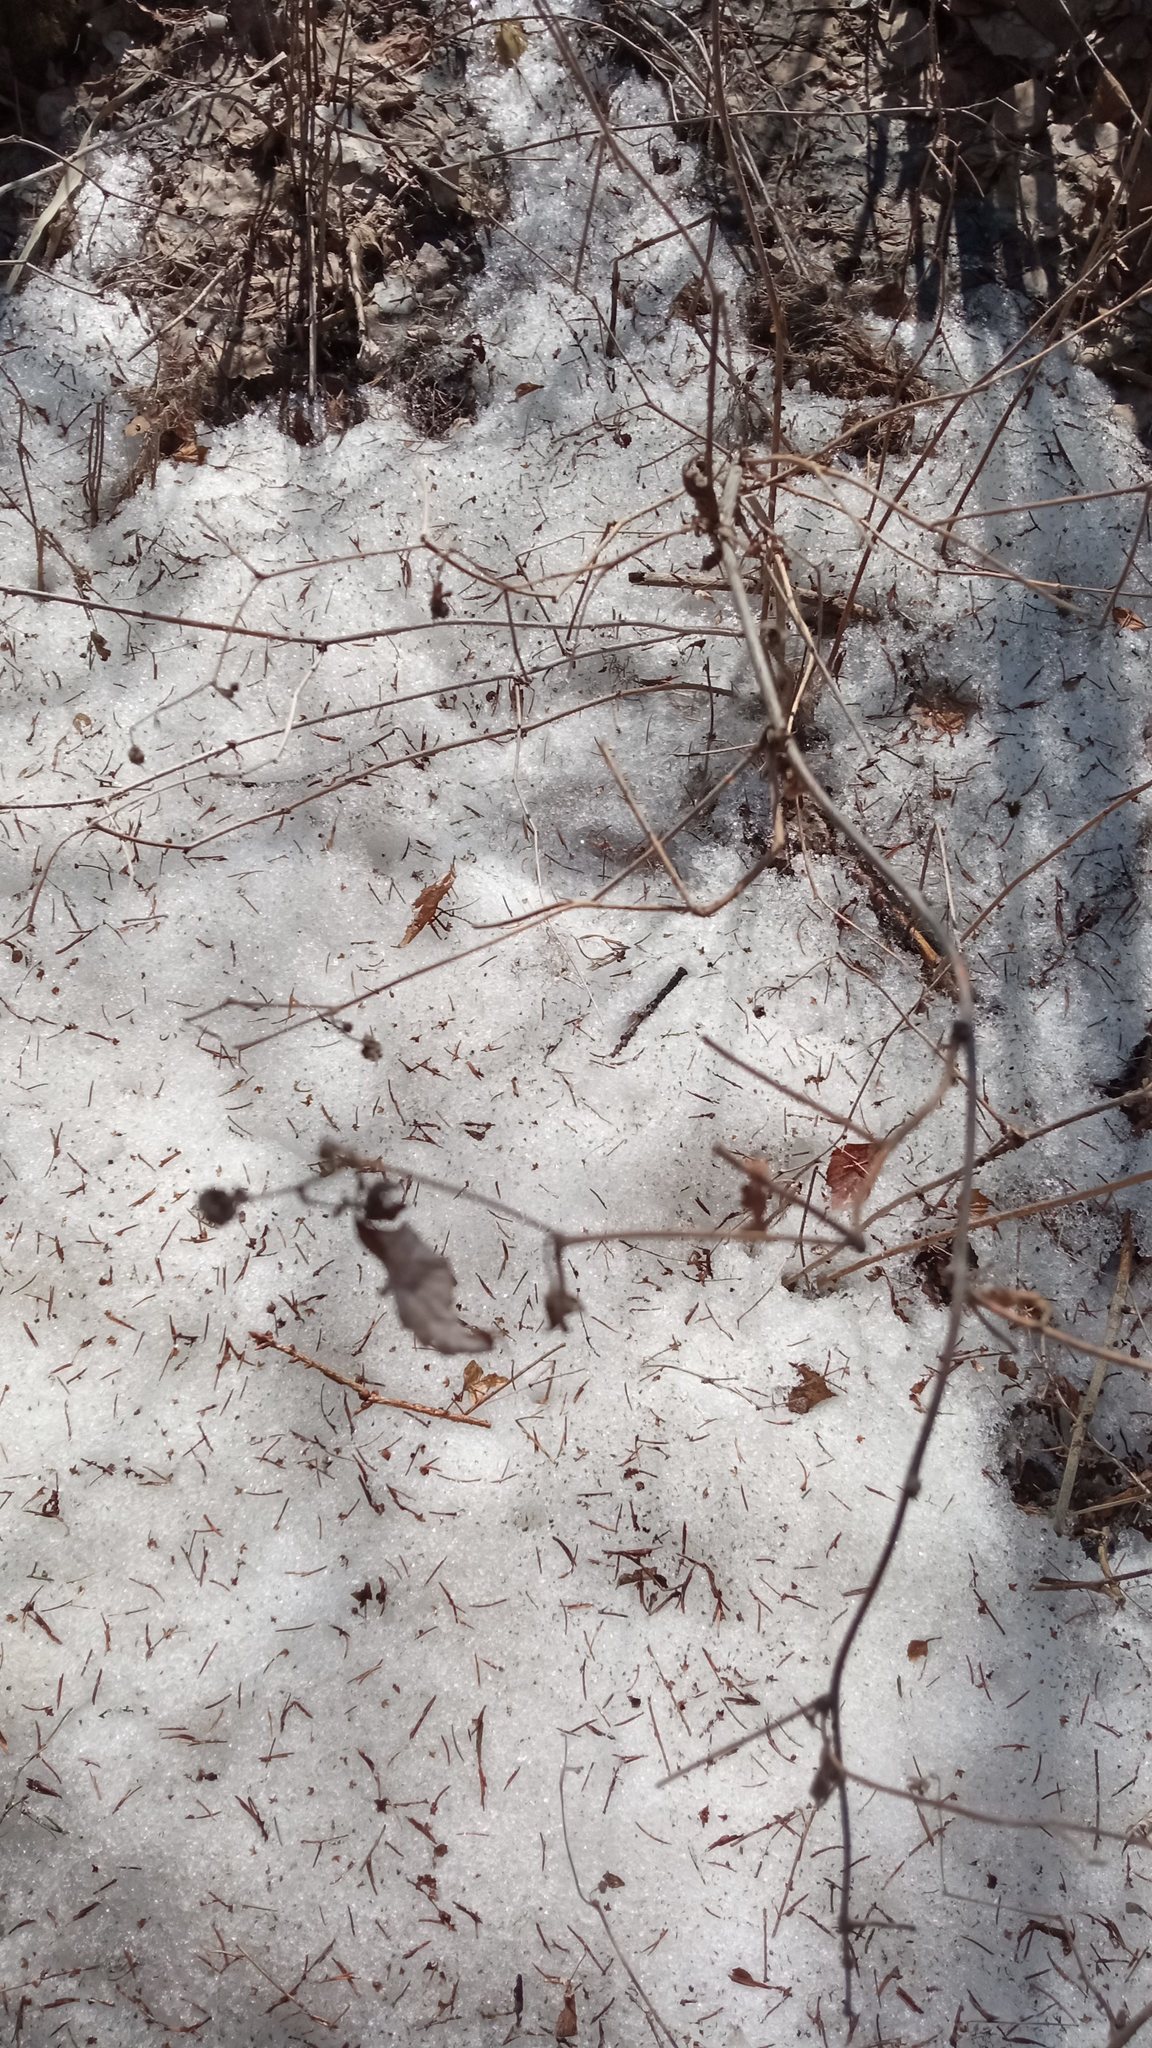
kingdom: Plantae
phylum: Tracheophyta
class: Magnoliopsida
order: Rosales
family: Rosaceae
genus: Rubus
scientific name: Rubus idaeus
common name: Raspberry
